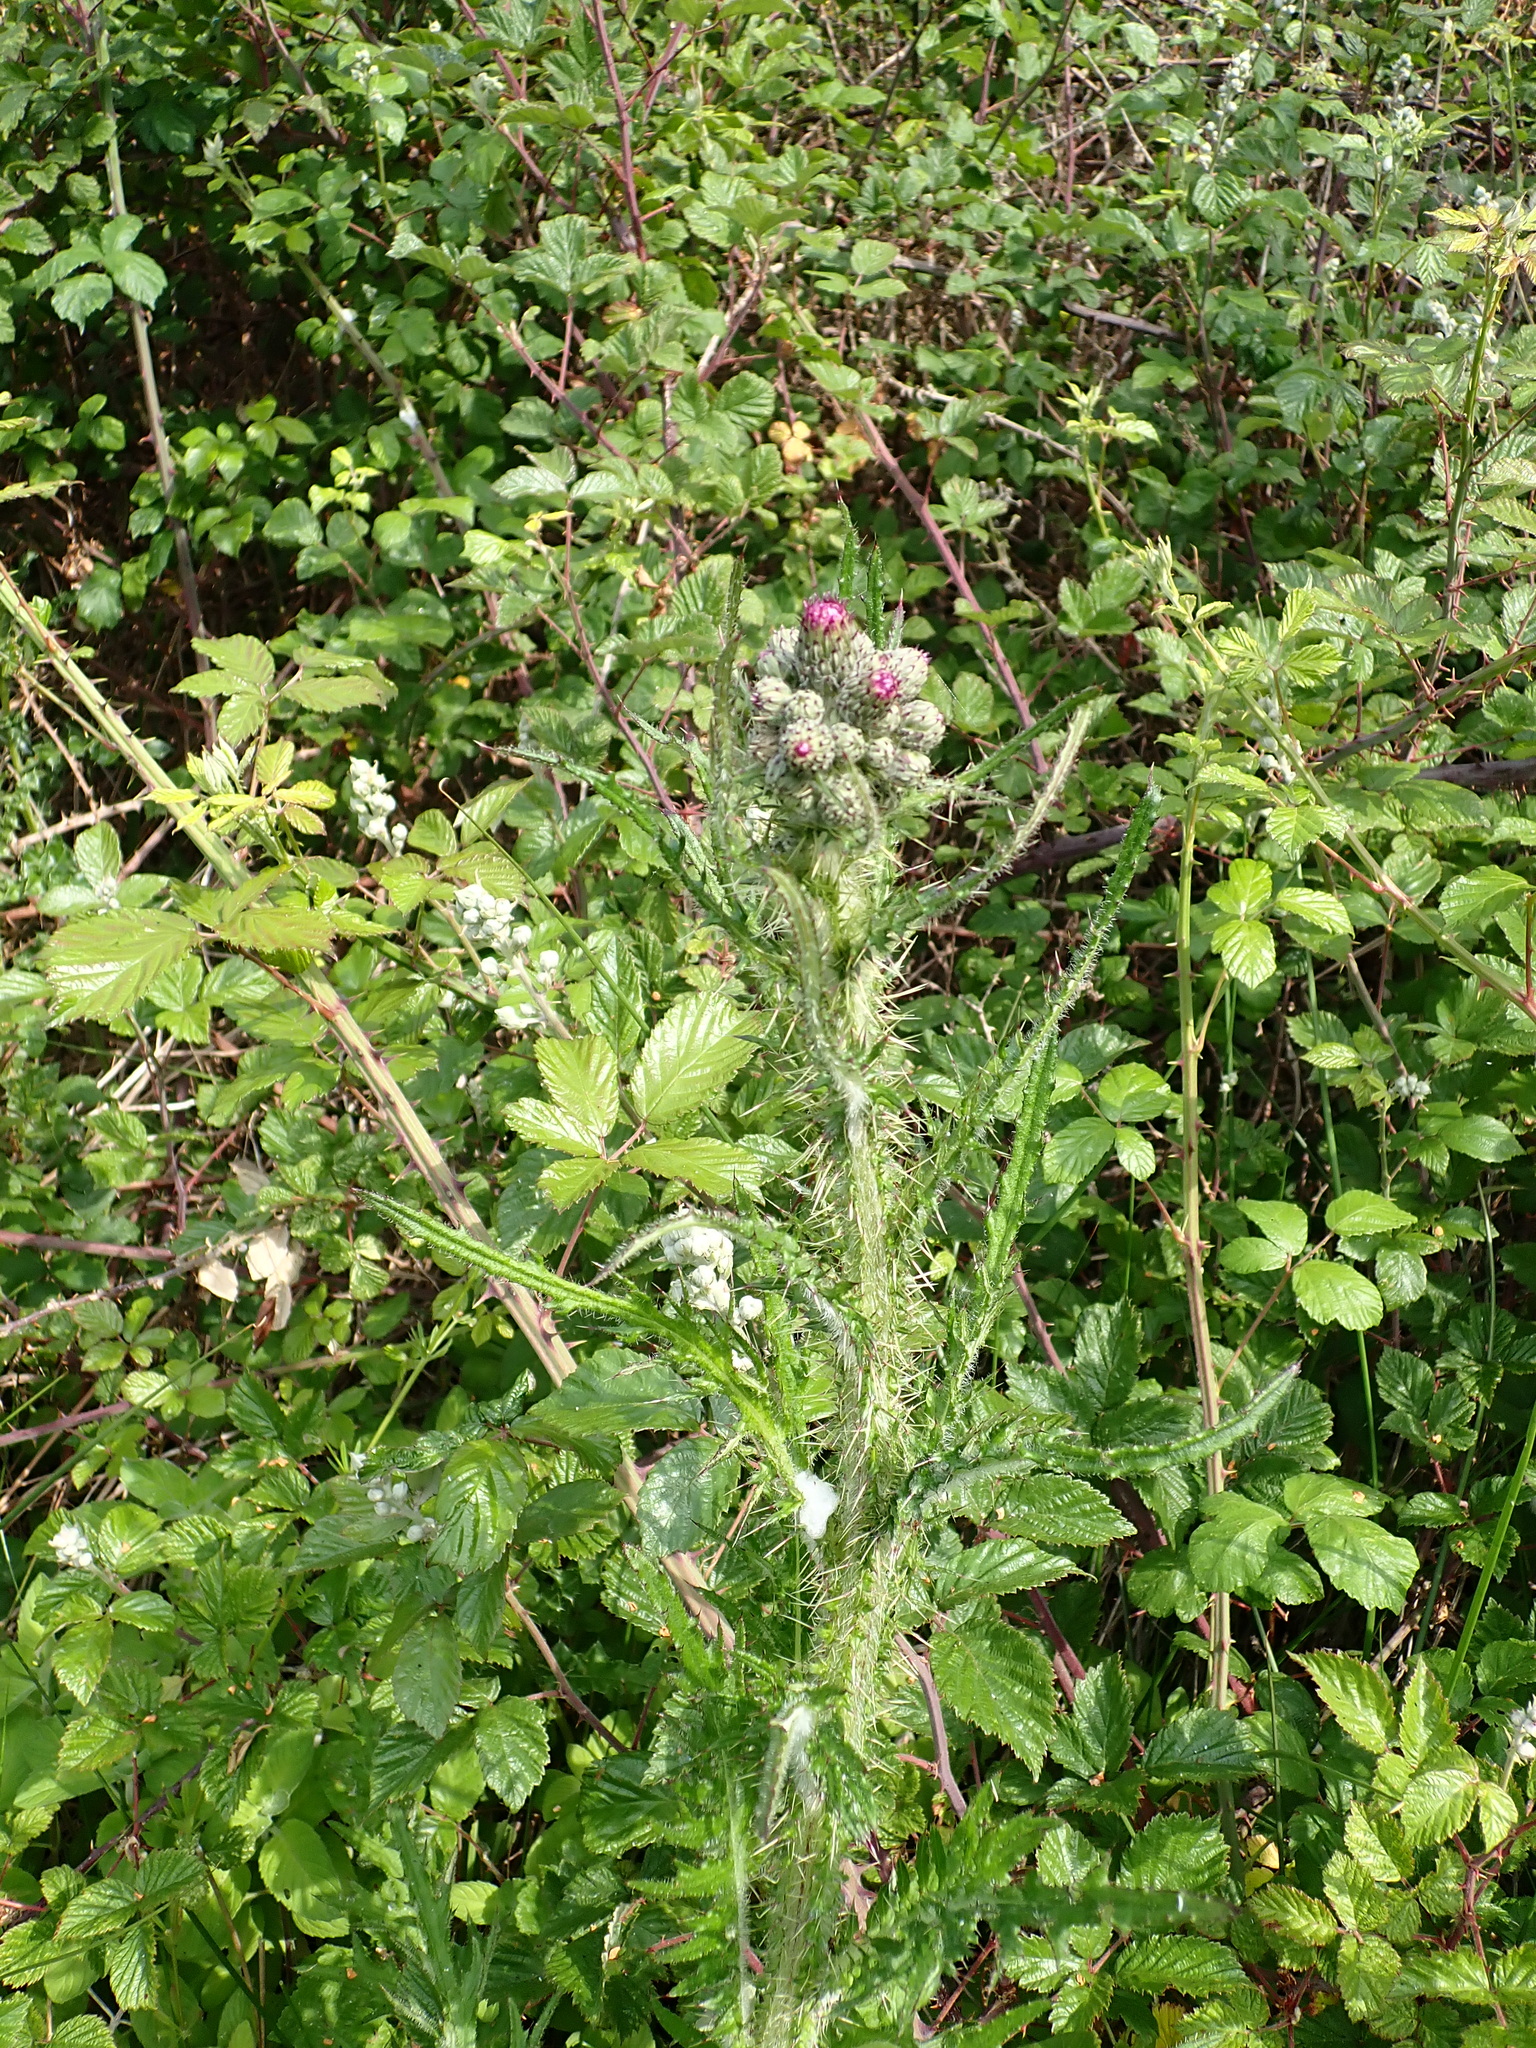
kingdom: Plantae
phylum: Tracheophyta
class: Magnoliopsida
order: Asterales
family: Asteraceae
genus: Cirsium
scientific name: Cirsium palustre
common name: Marsh thistle
